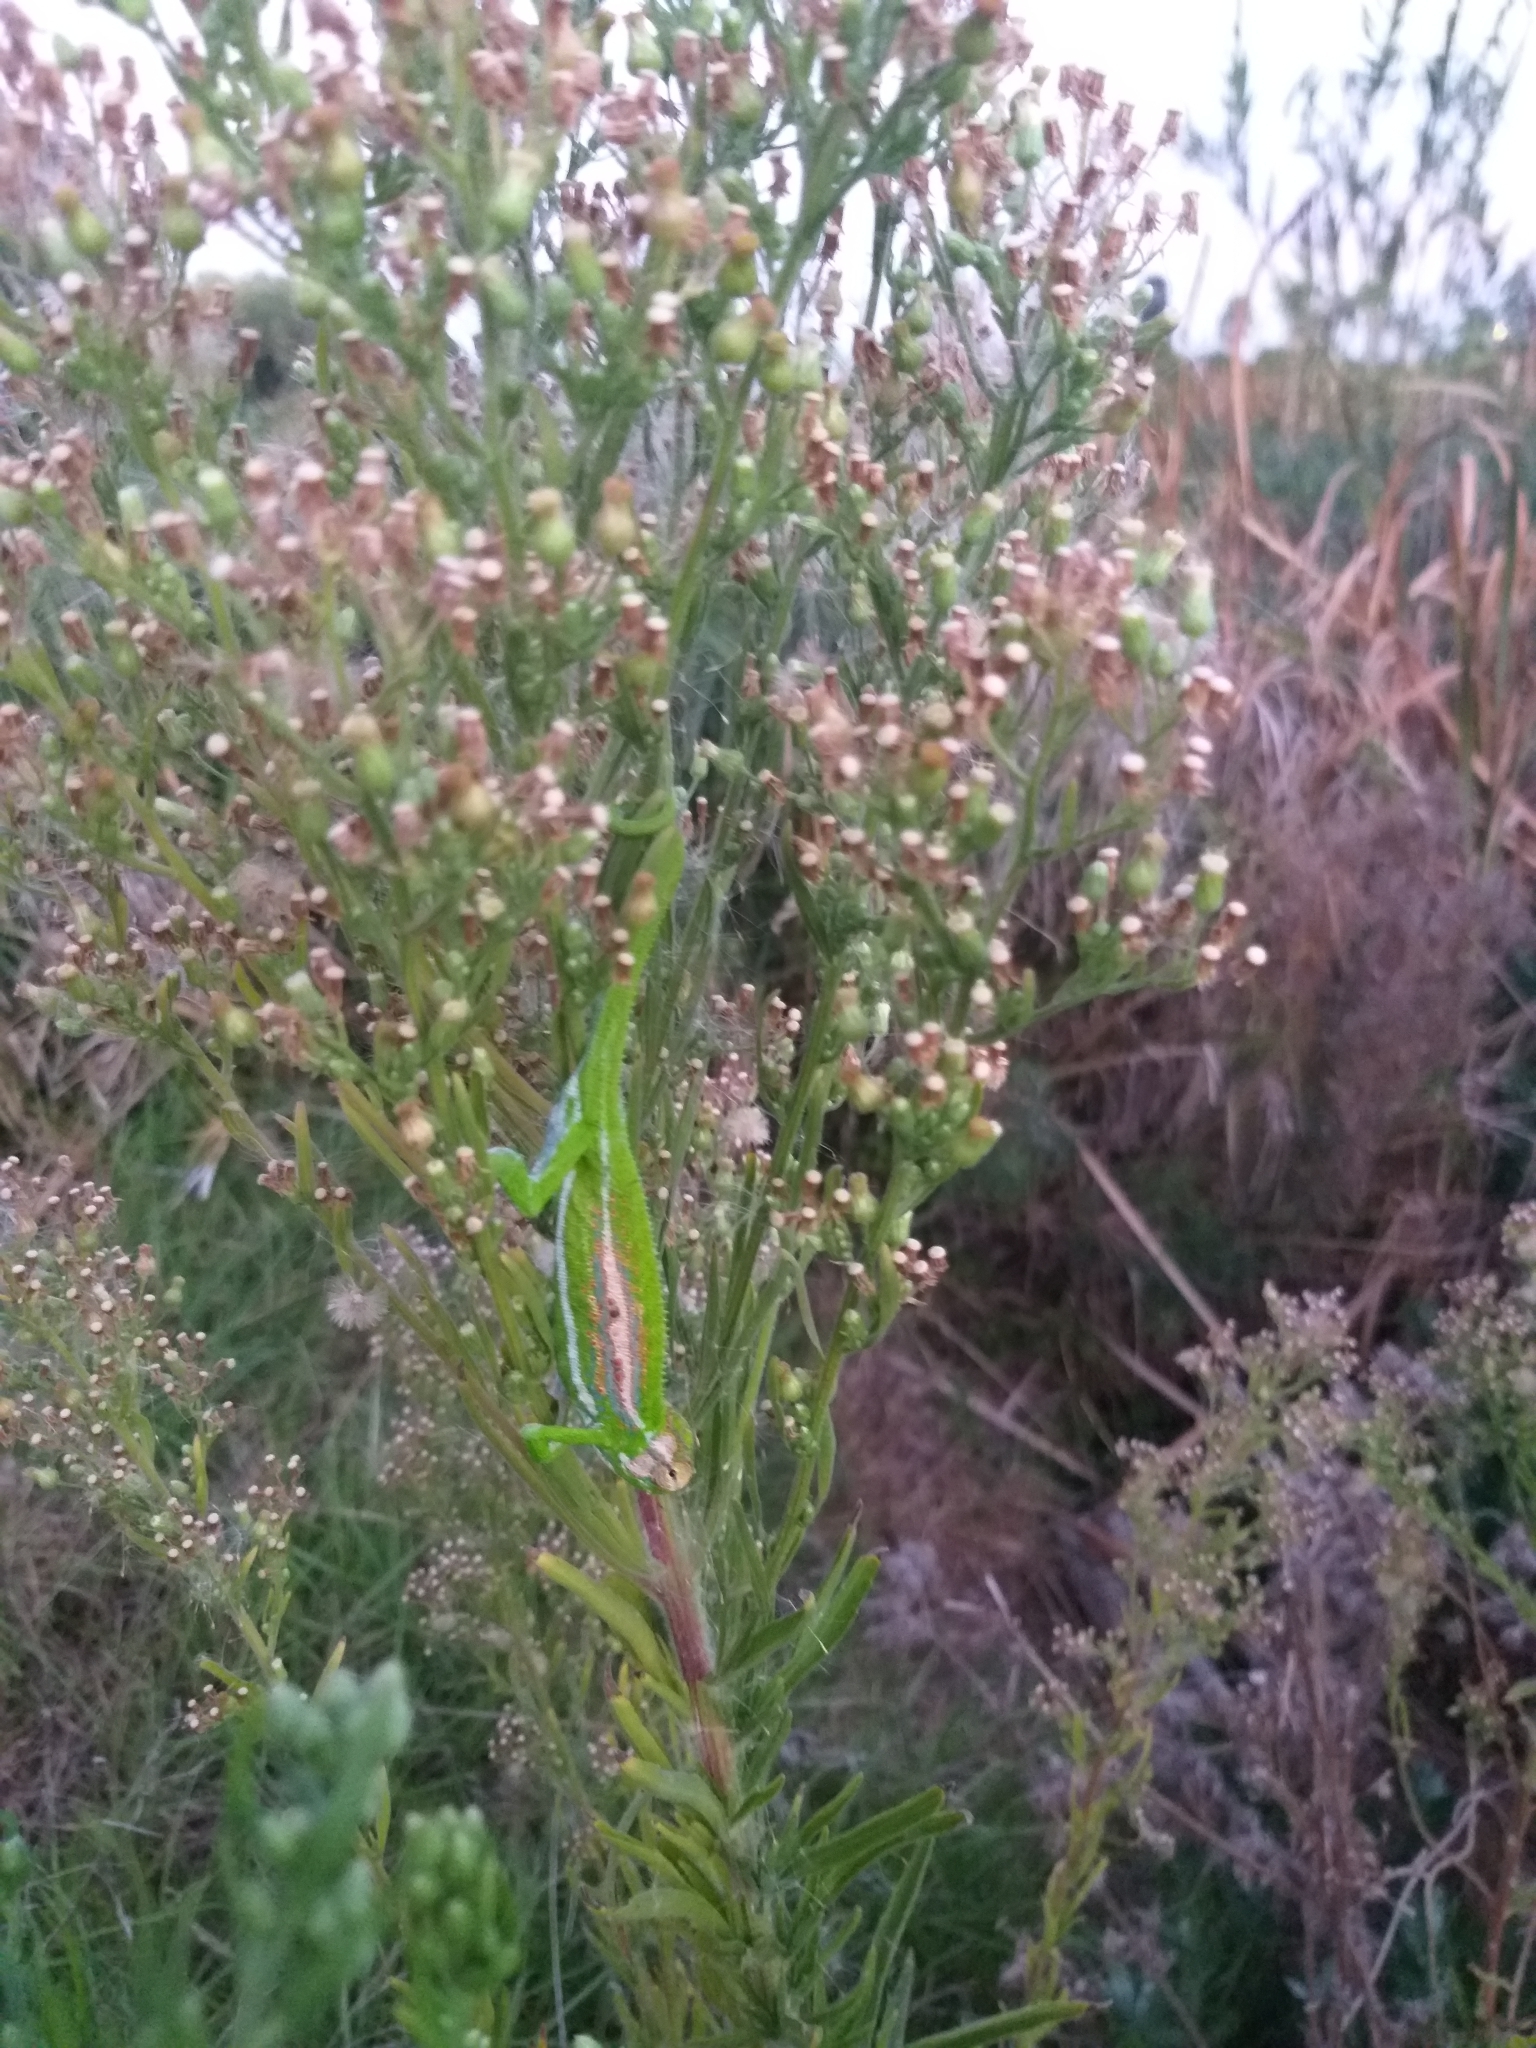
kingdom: Animalia
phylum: Chordata
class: Squamata
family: Chamaeleonidae
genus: Bradypodion
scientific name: Bradypodion pumilum
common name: Cape dwarf chameleon
